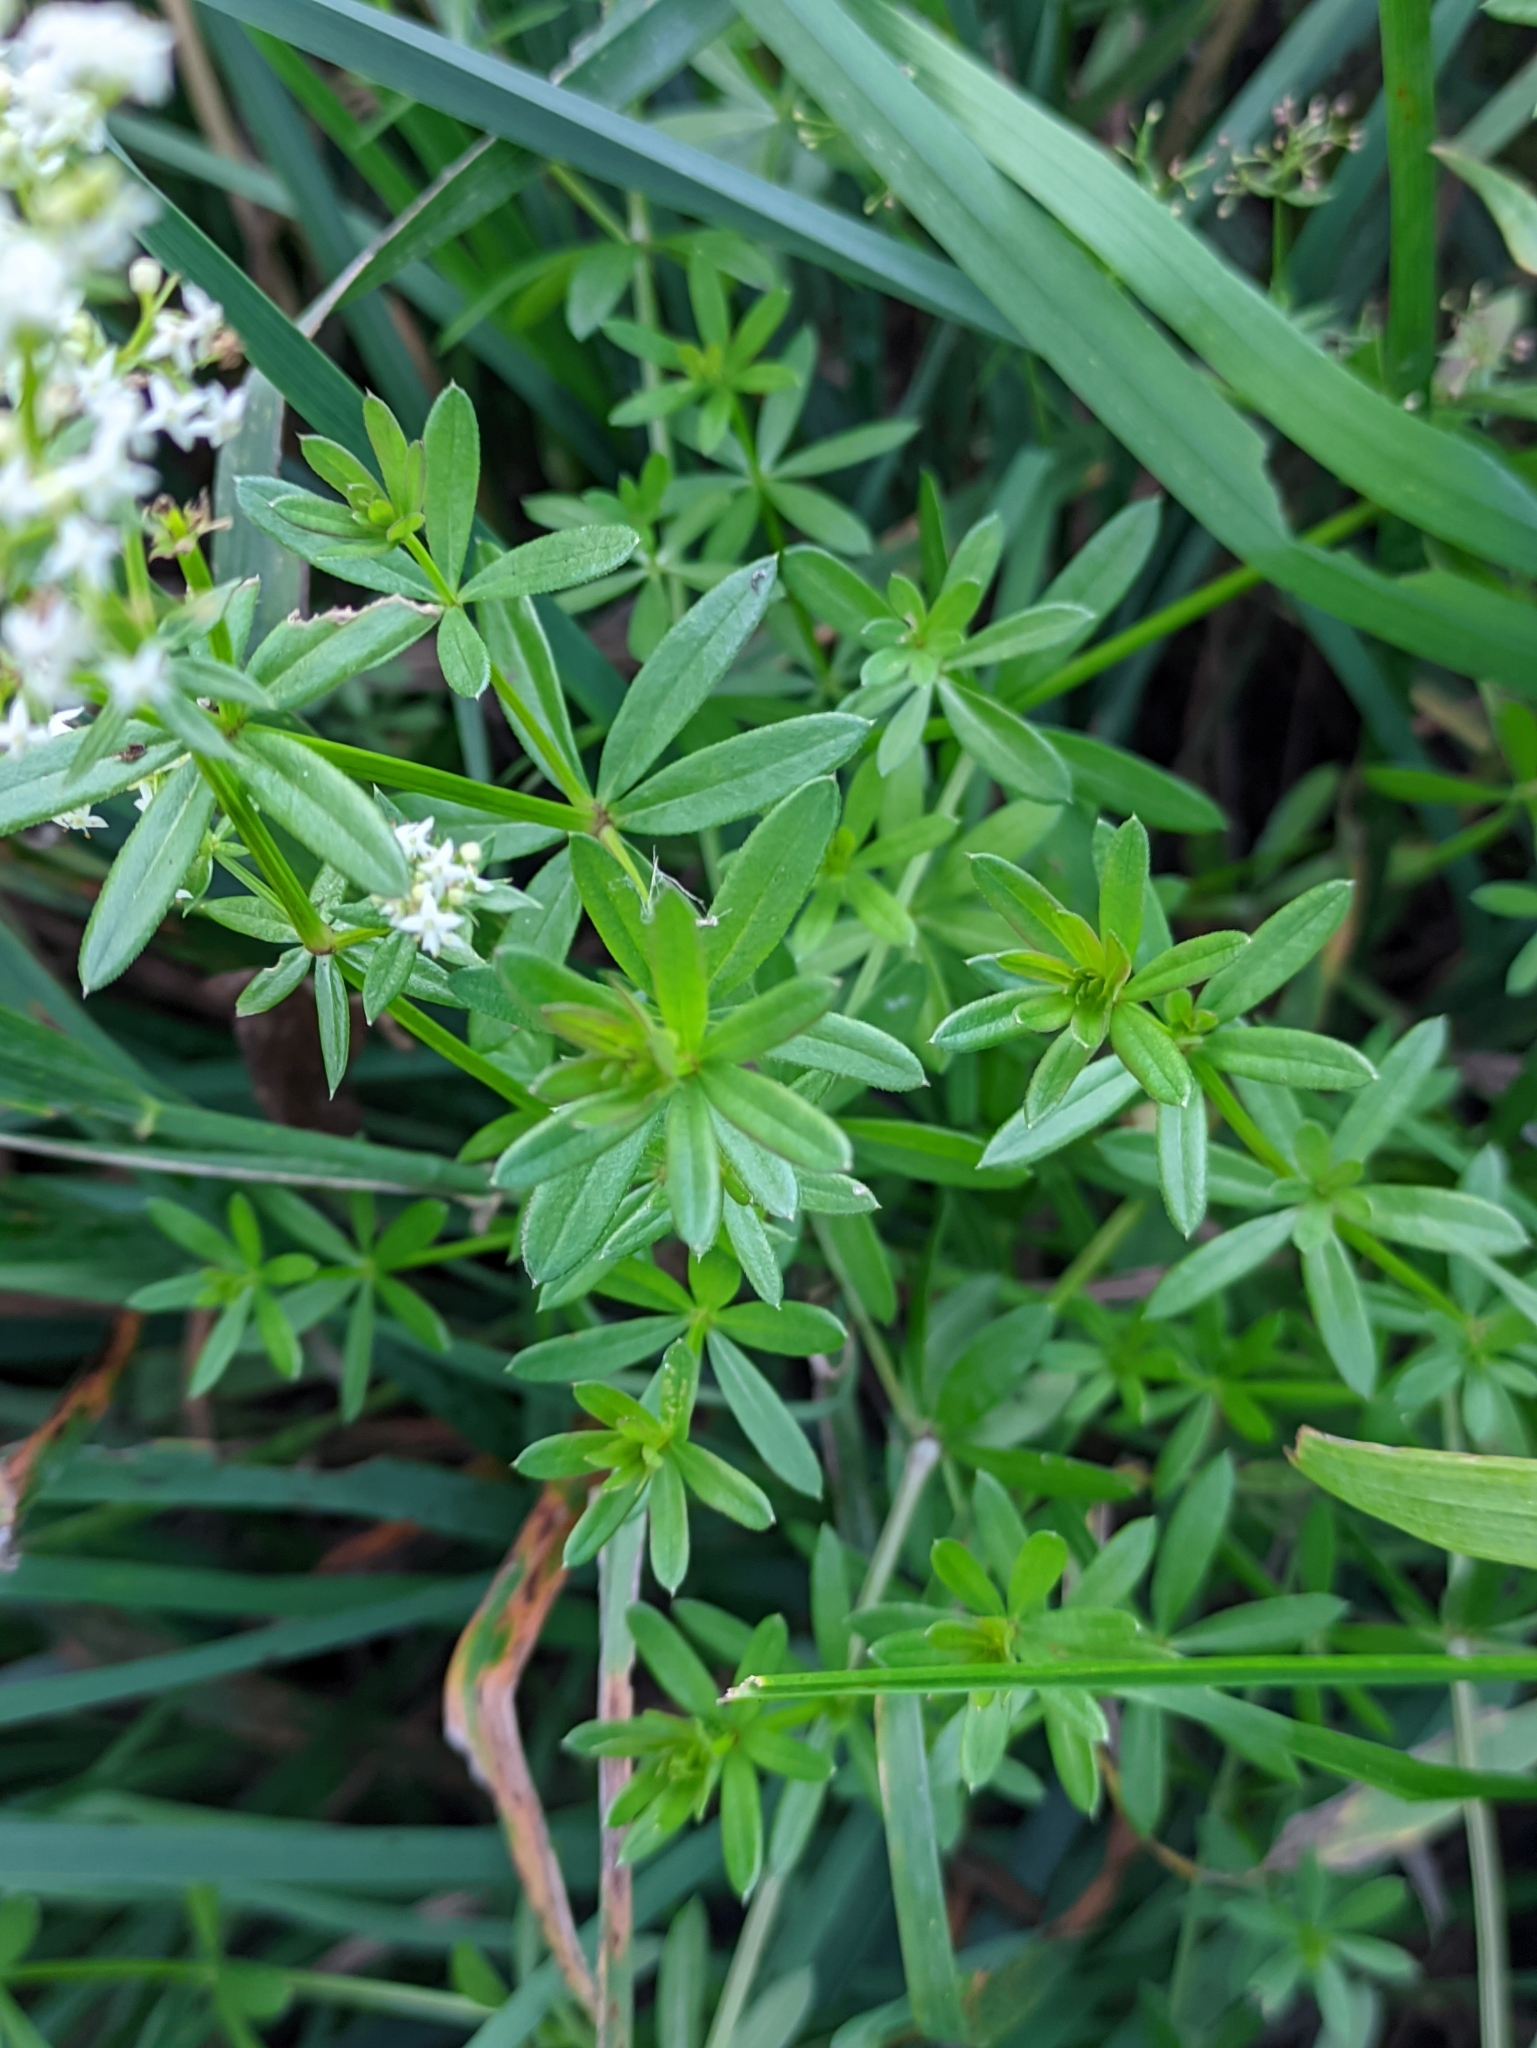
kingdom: Plantae
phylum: Tracheophyta
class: Magnoliopsida
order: Gentianales
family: Rubiaceae
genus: Galium
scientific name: Galium mollugo
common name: Hedge bedstraw
